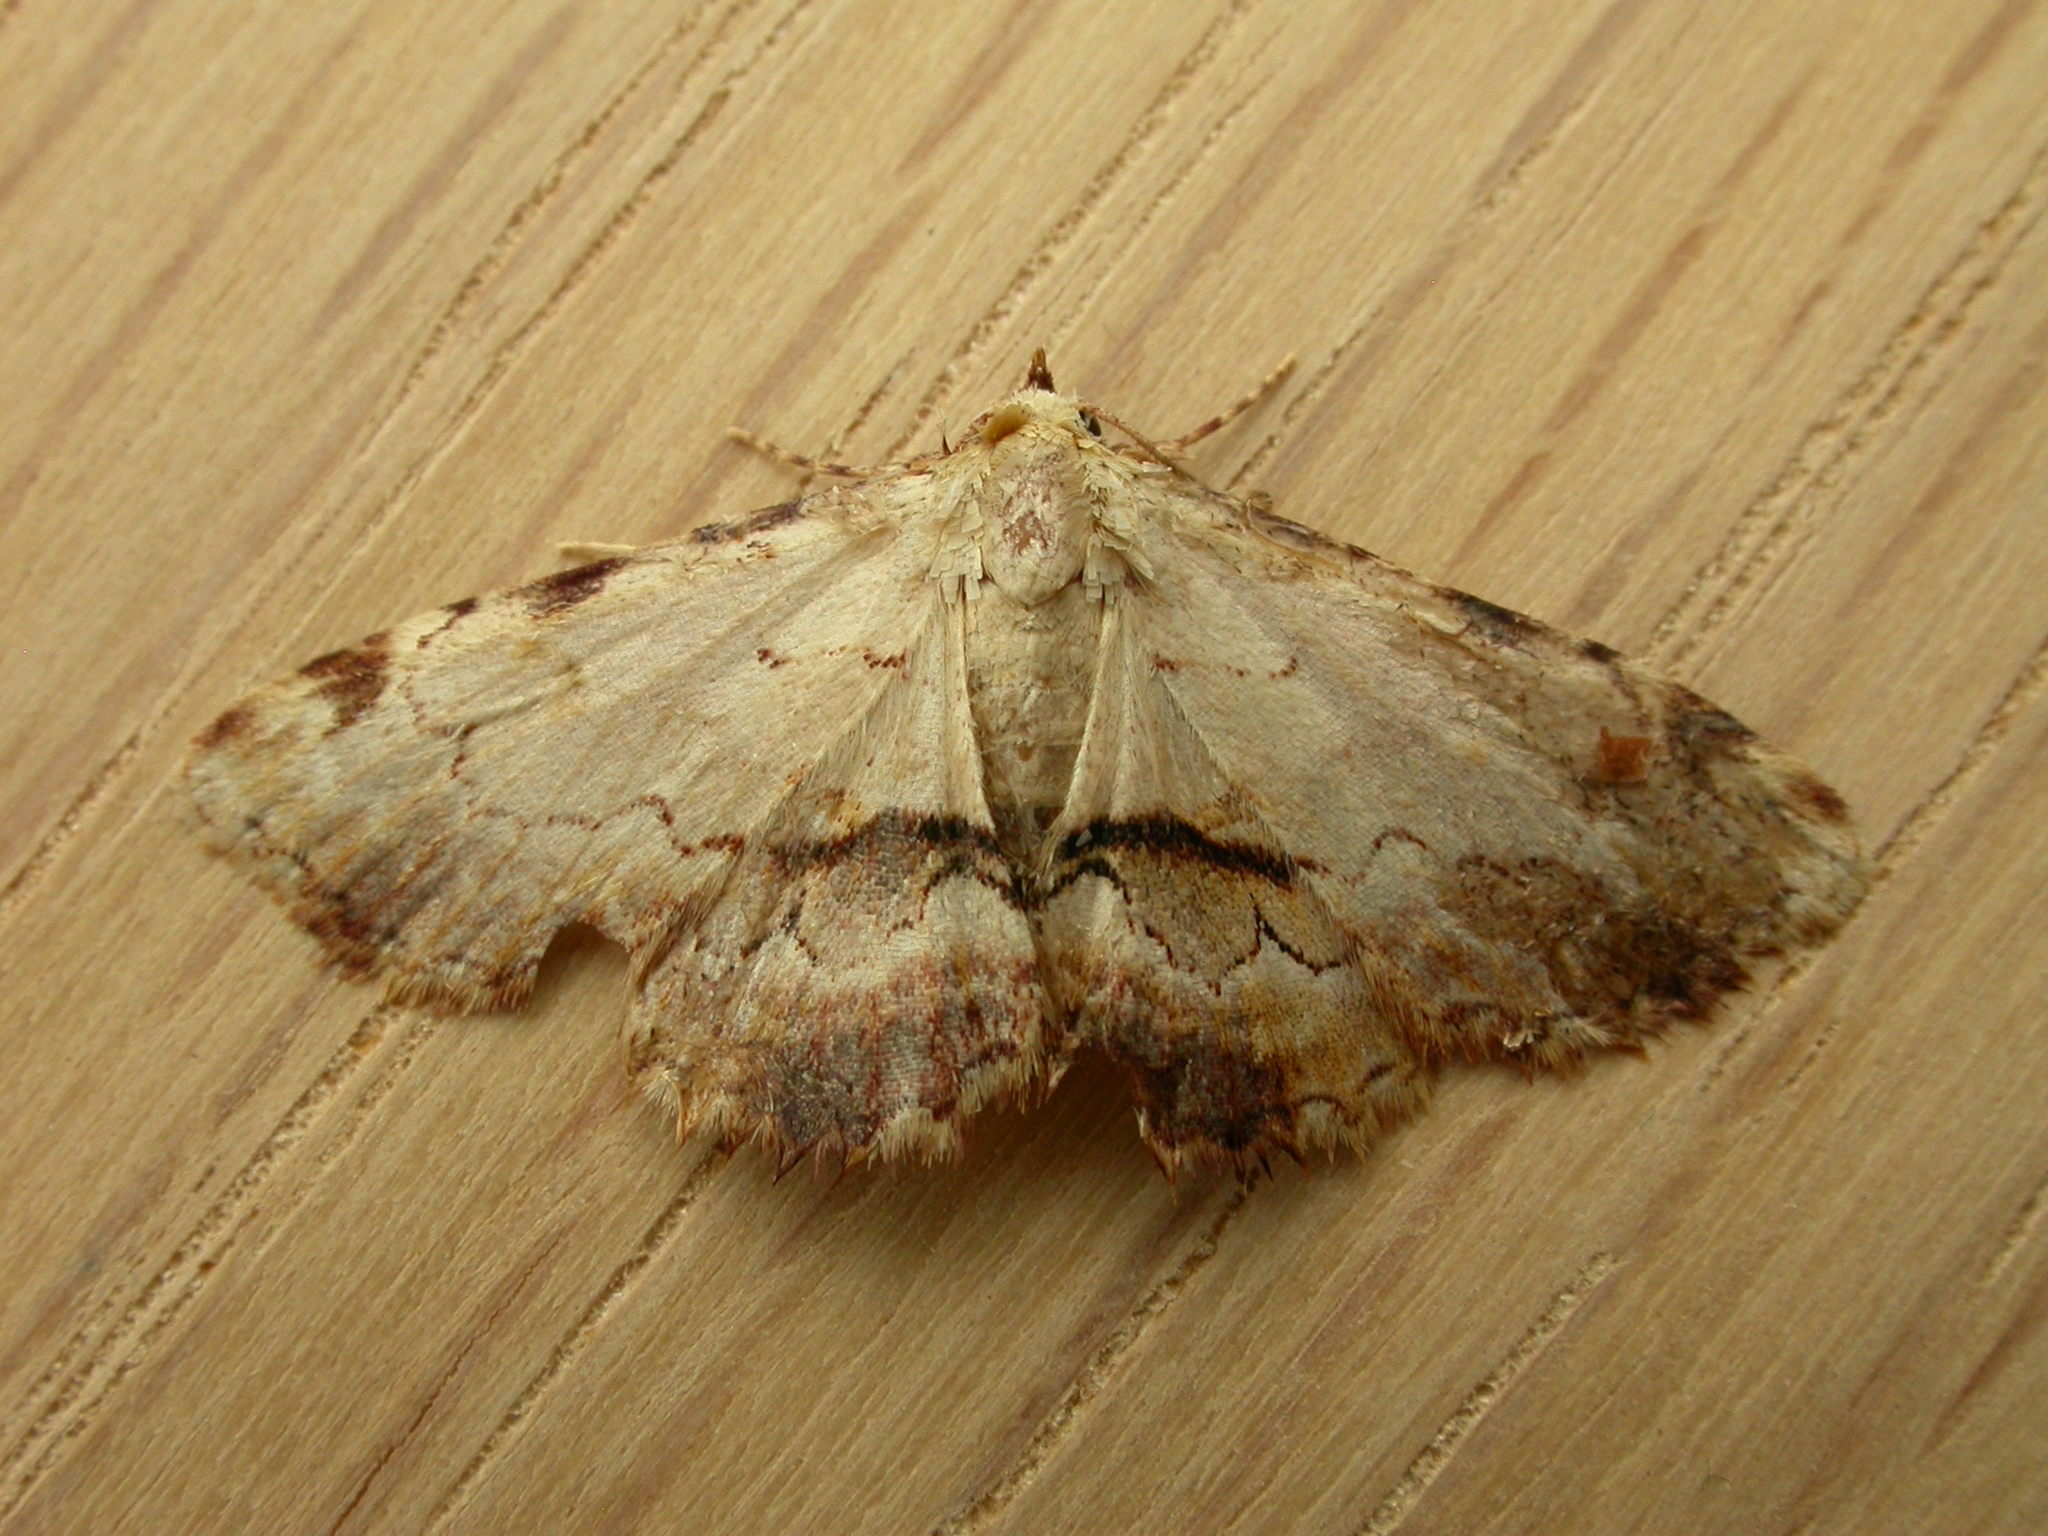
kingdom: Animalia
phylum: Arthropoda
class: Insecta
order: Lepidoptera
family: Erebidae
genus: Sandava
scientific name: Sandava xylistis
